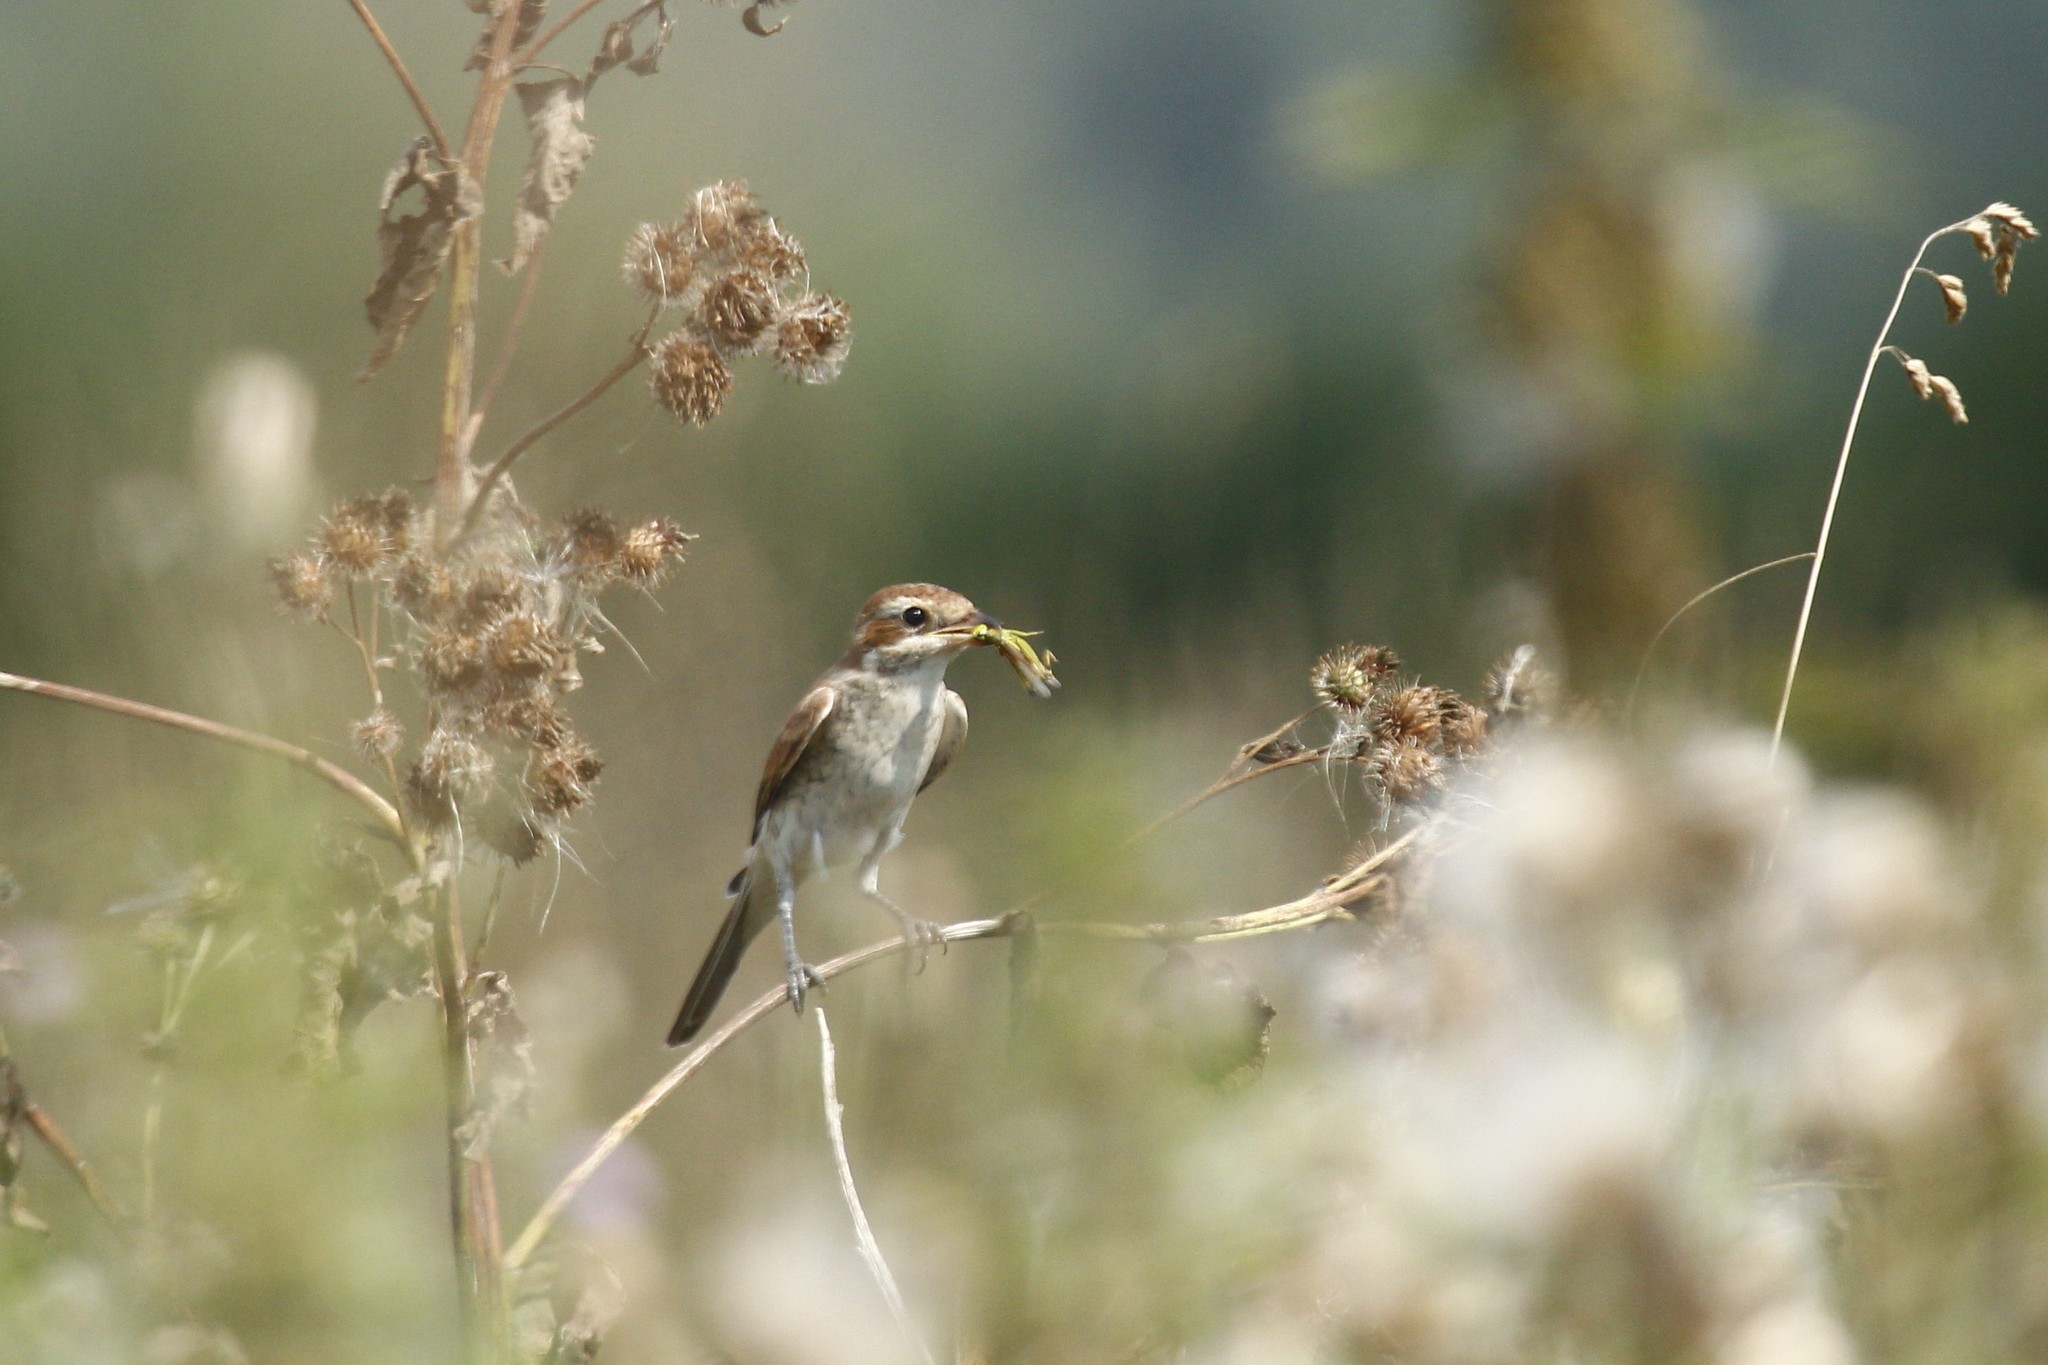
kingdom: Animalia
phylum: Chordata
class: Aves
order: Passeriformes
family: Laniidae
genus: Lanius
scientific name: Lanius collurio
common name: Red-backed shrike
